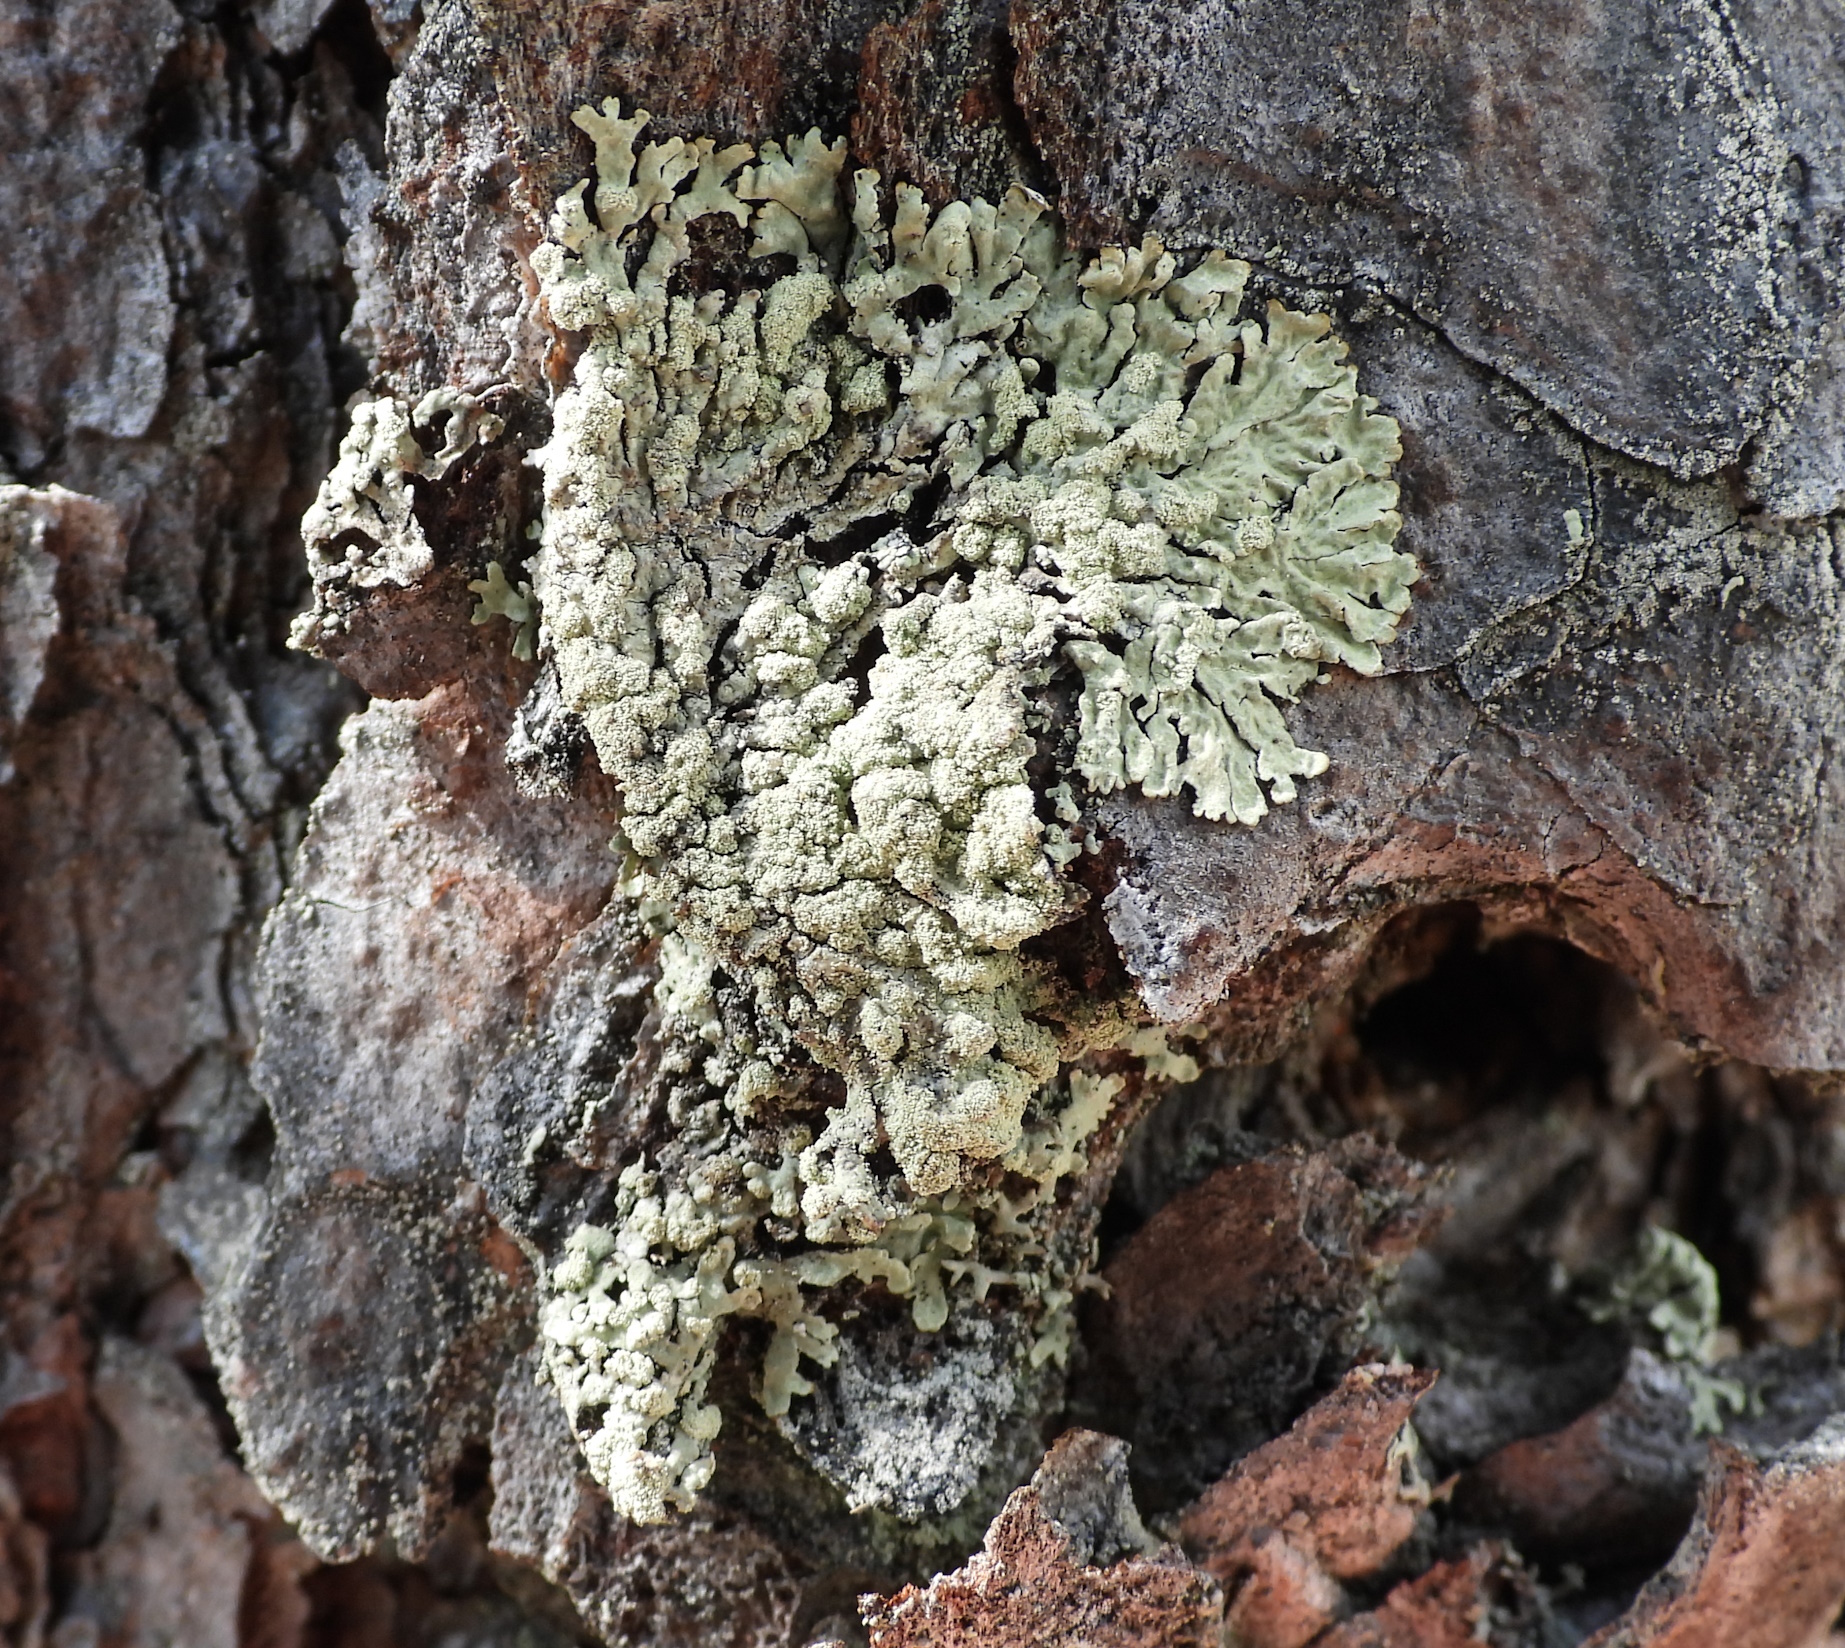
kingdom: Fungi
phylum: Ascomycota
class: Lecanoromycetes
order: Lecanorales
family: Parmeliaceae
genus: Parmeliopsis
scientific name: Parmeliopsis ambigua
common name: Green starburst lichen
